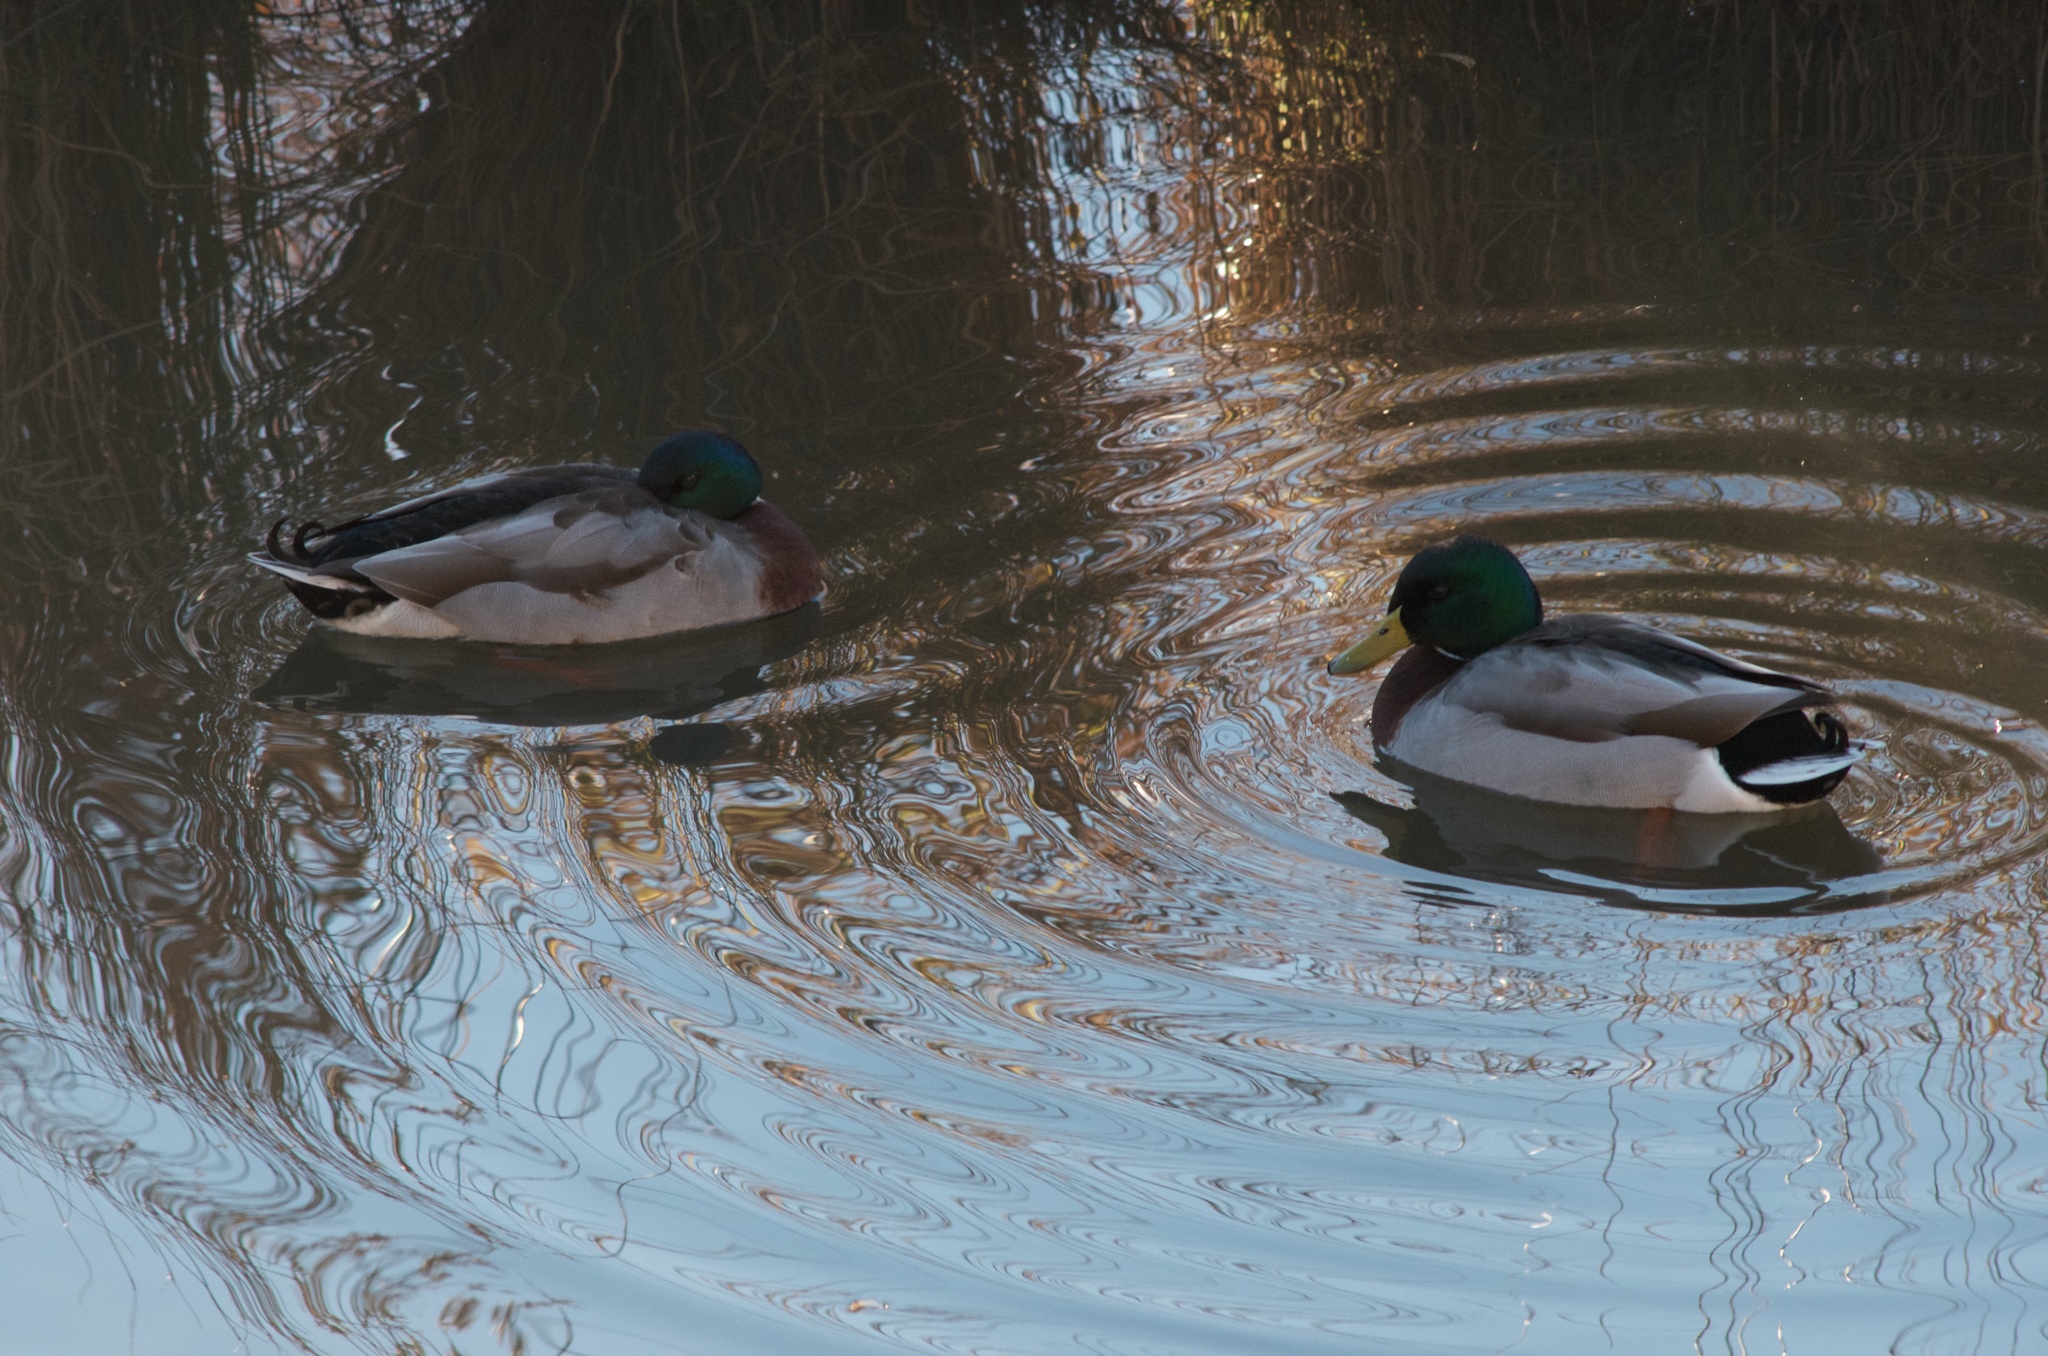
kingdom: Animalia
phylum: Chordata
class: Aves
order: Anseriformes
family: Anatidae
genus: Anas
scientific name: Anas platyrhynchos
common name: Mallard
